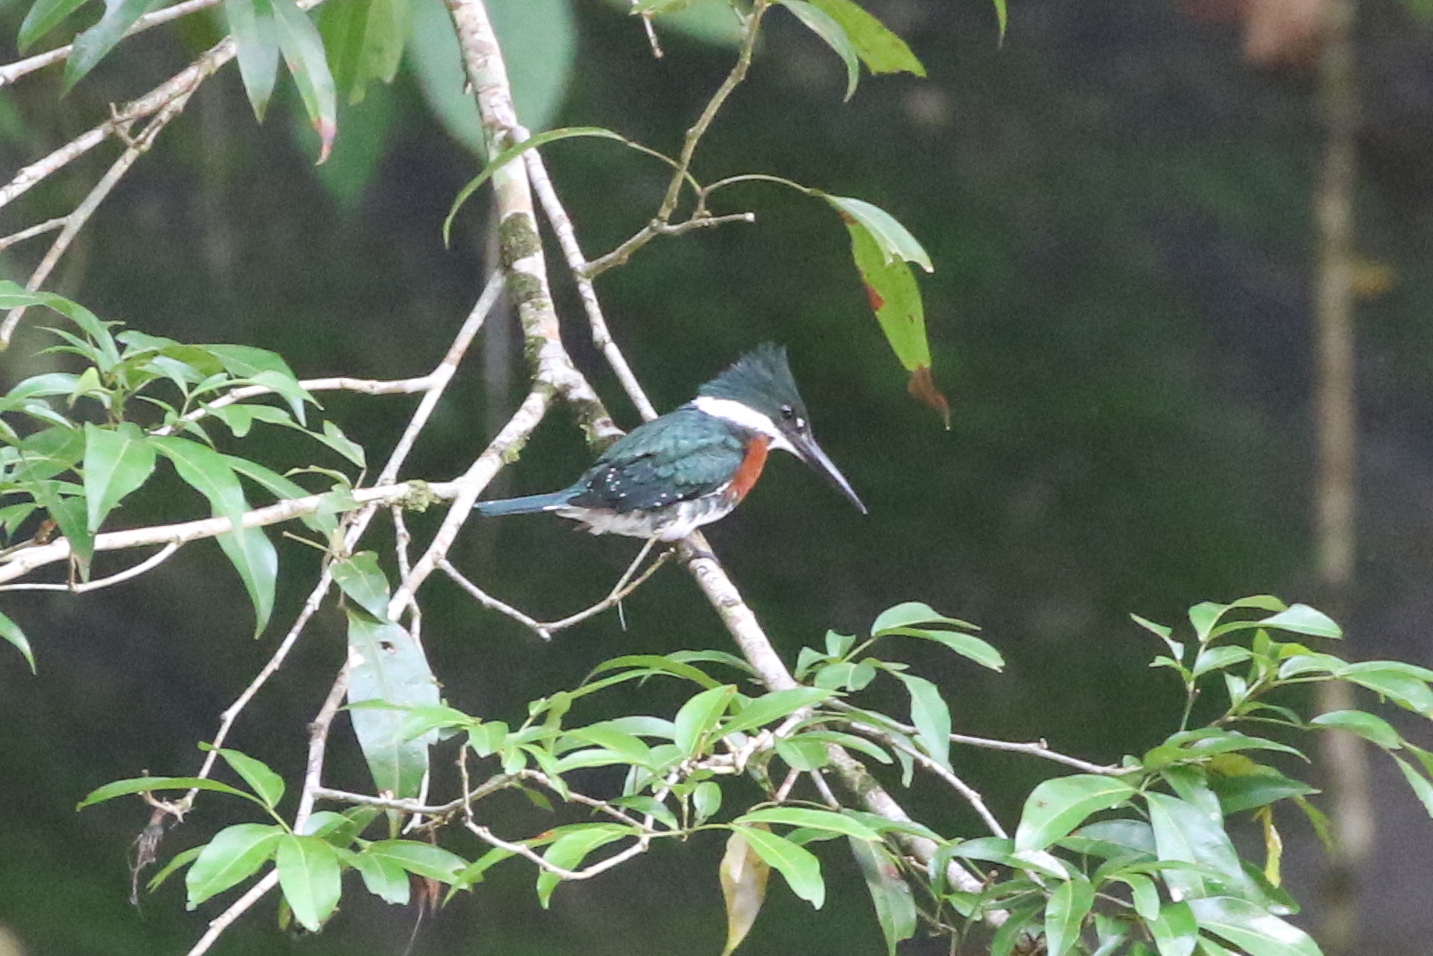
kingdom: Animalia
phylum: Chordata
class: Aves
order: Coraciiformes
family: Alcedinidae
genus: Chloroceryle
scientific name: Chloroceryle americana
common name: Green kingfisher
